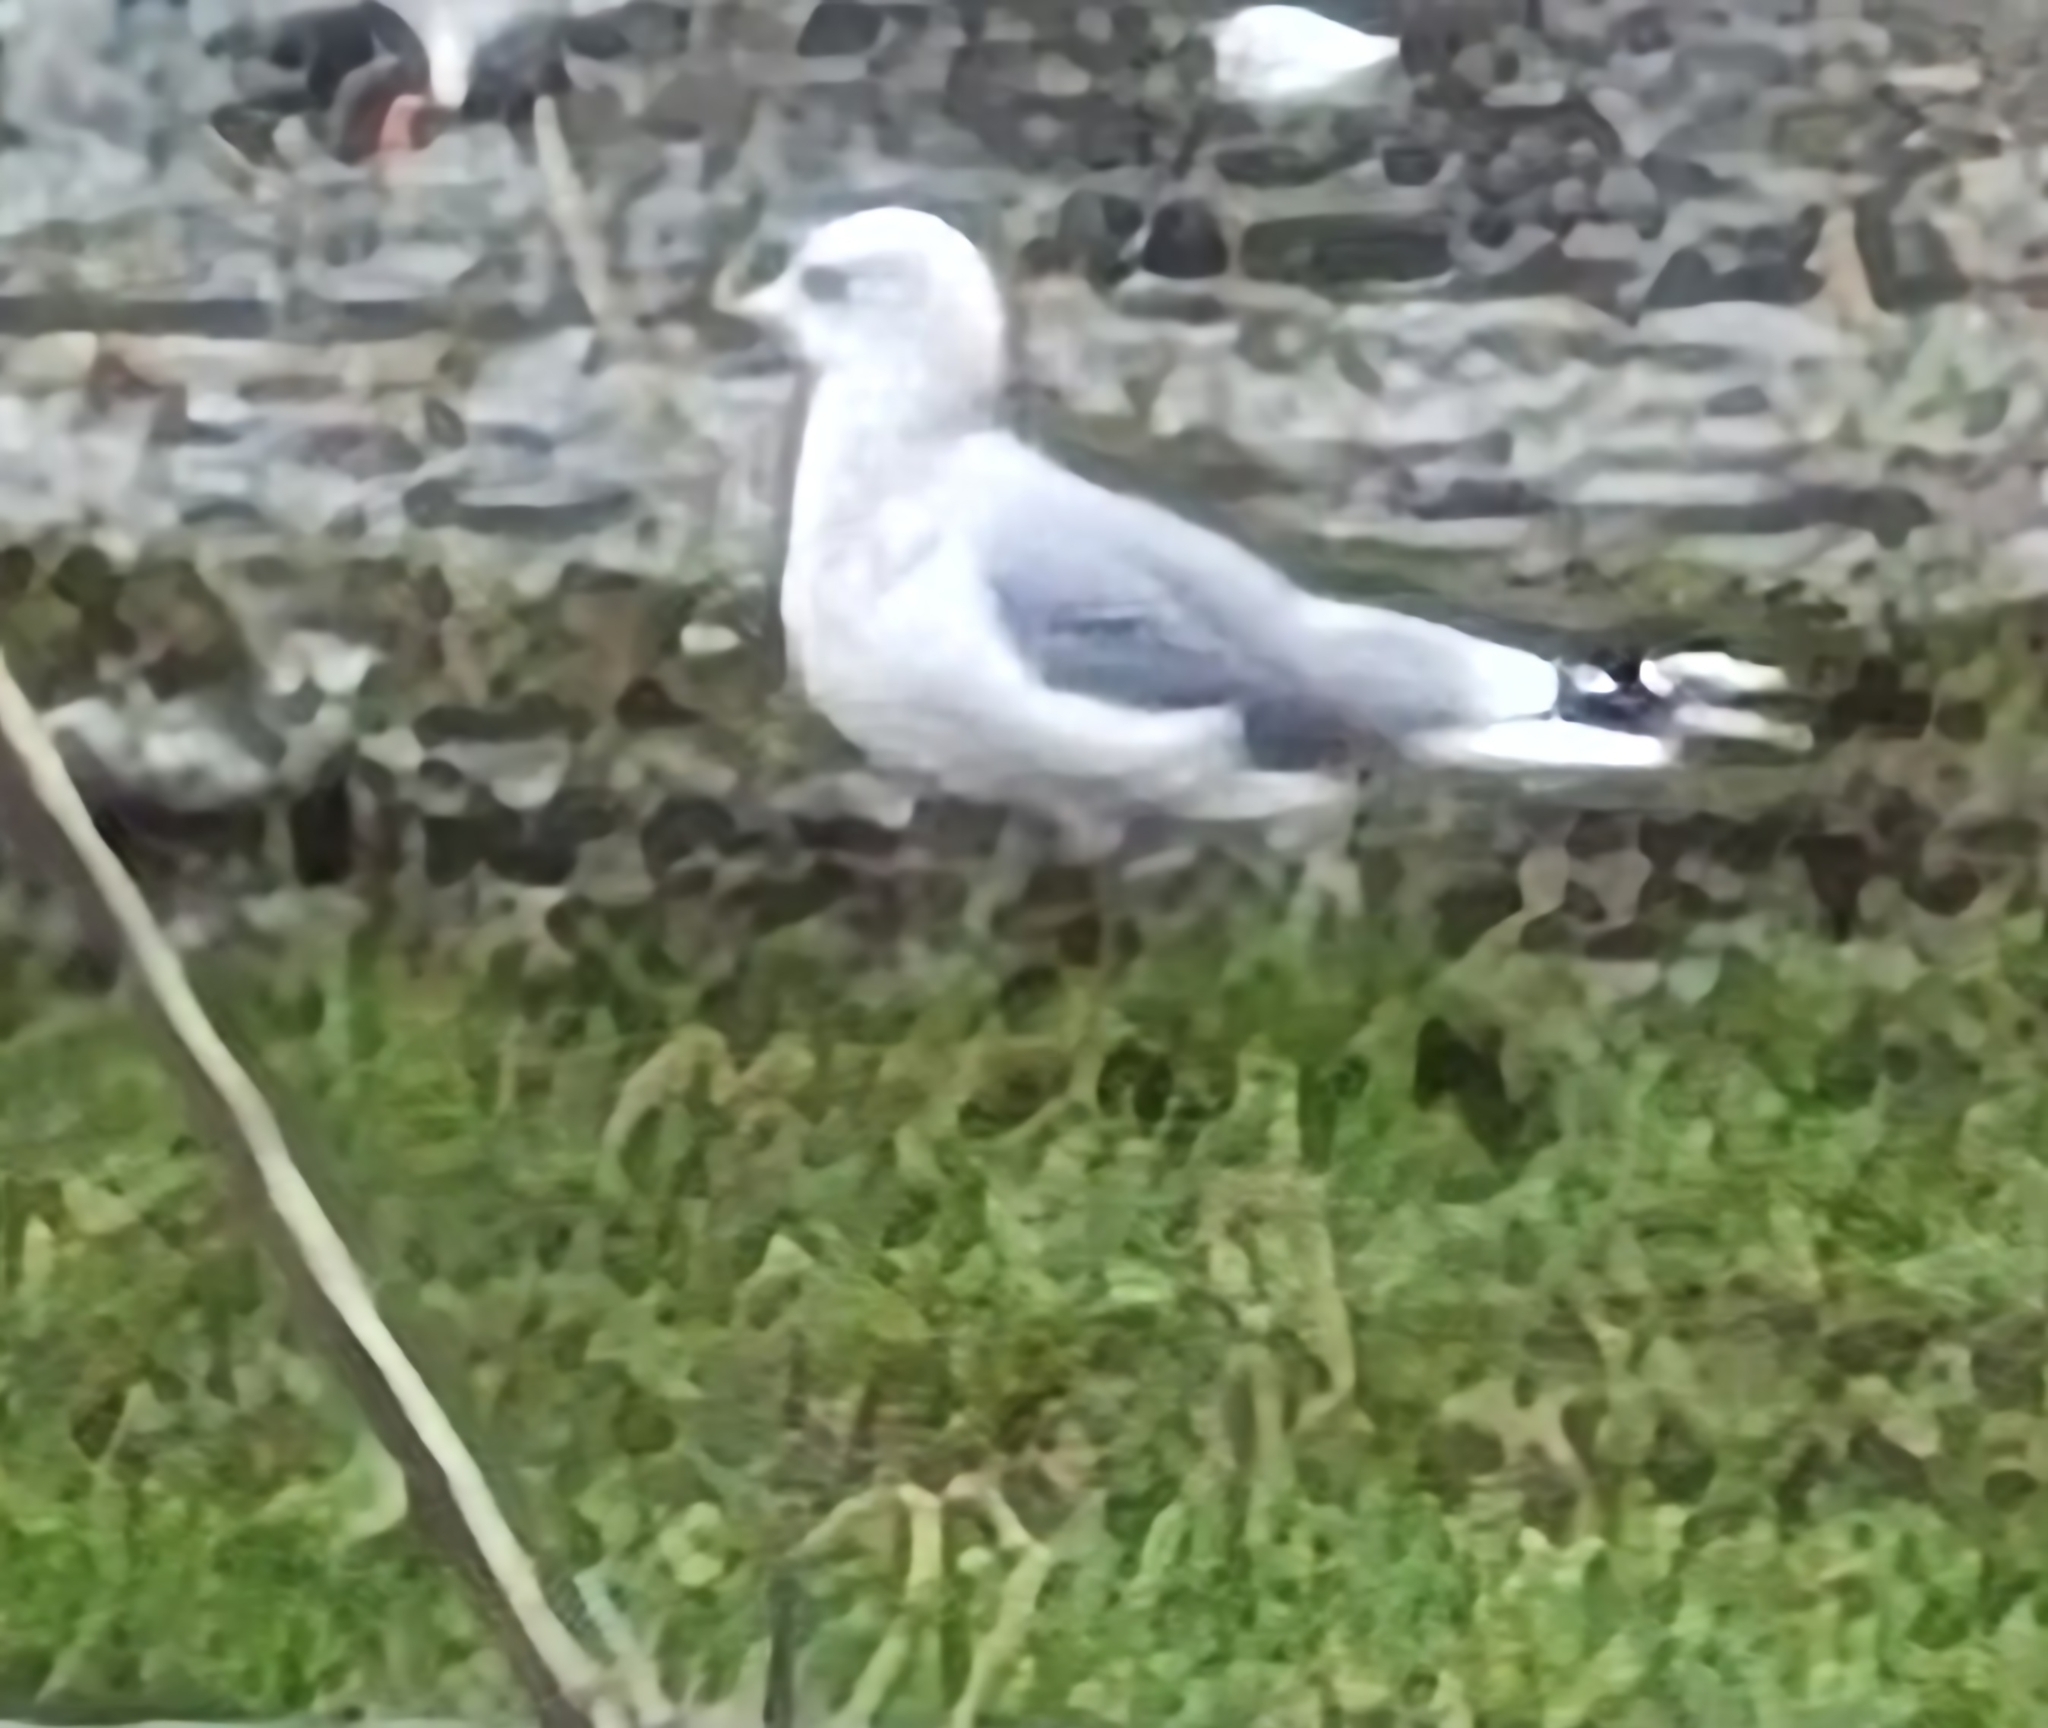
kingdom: Animalia
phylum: Chordata
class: Aves
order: Charadriiformes
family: Laridae
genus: Larus
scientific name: Larus canus
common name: Mew gull
